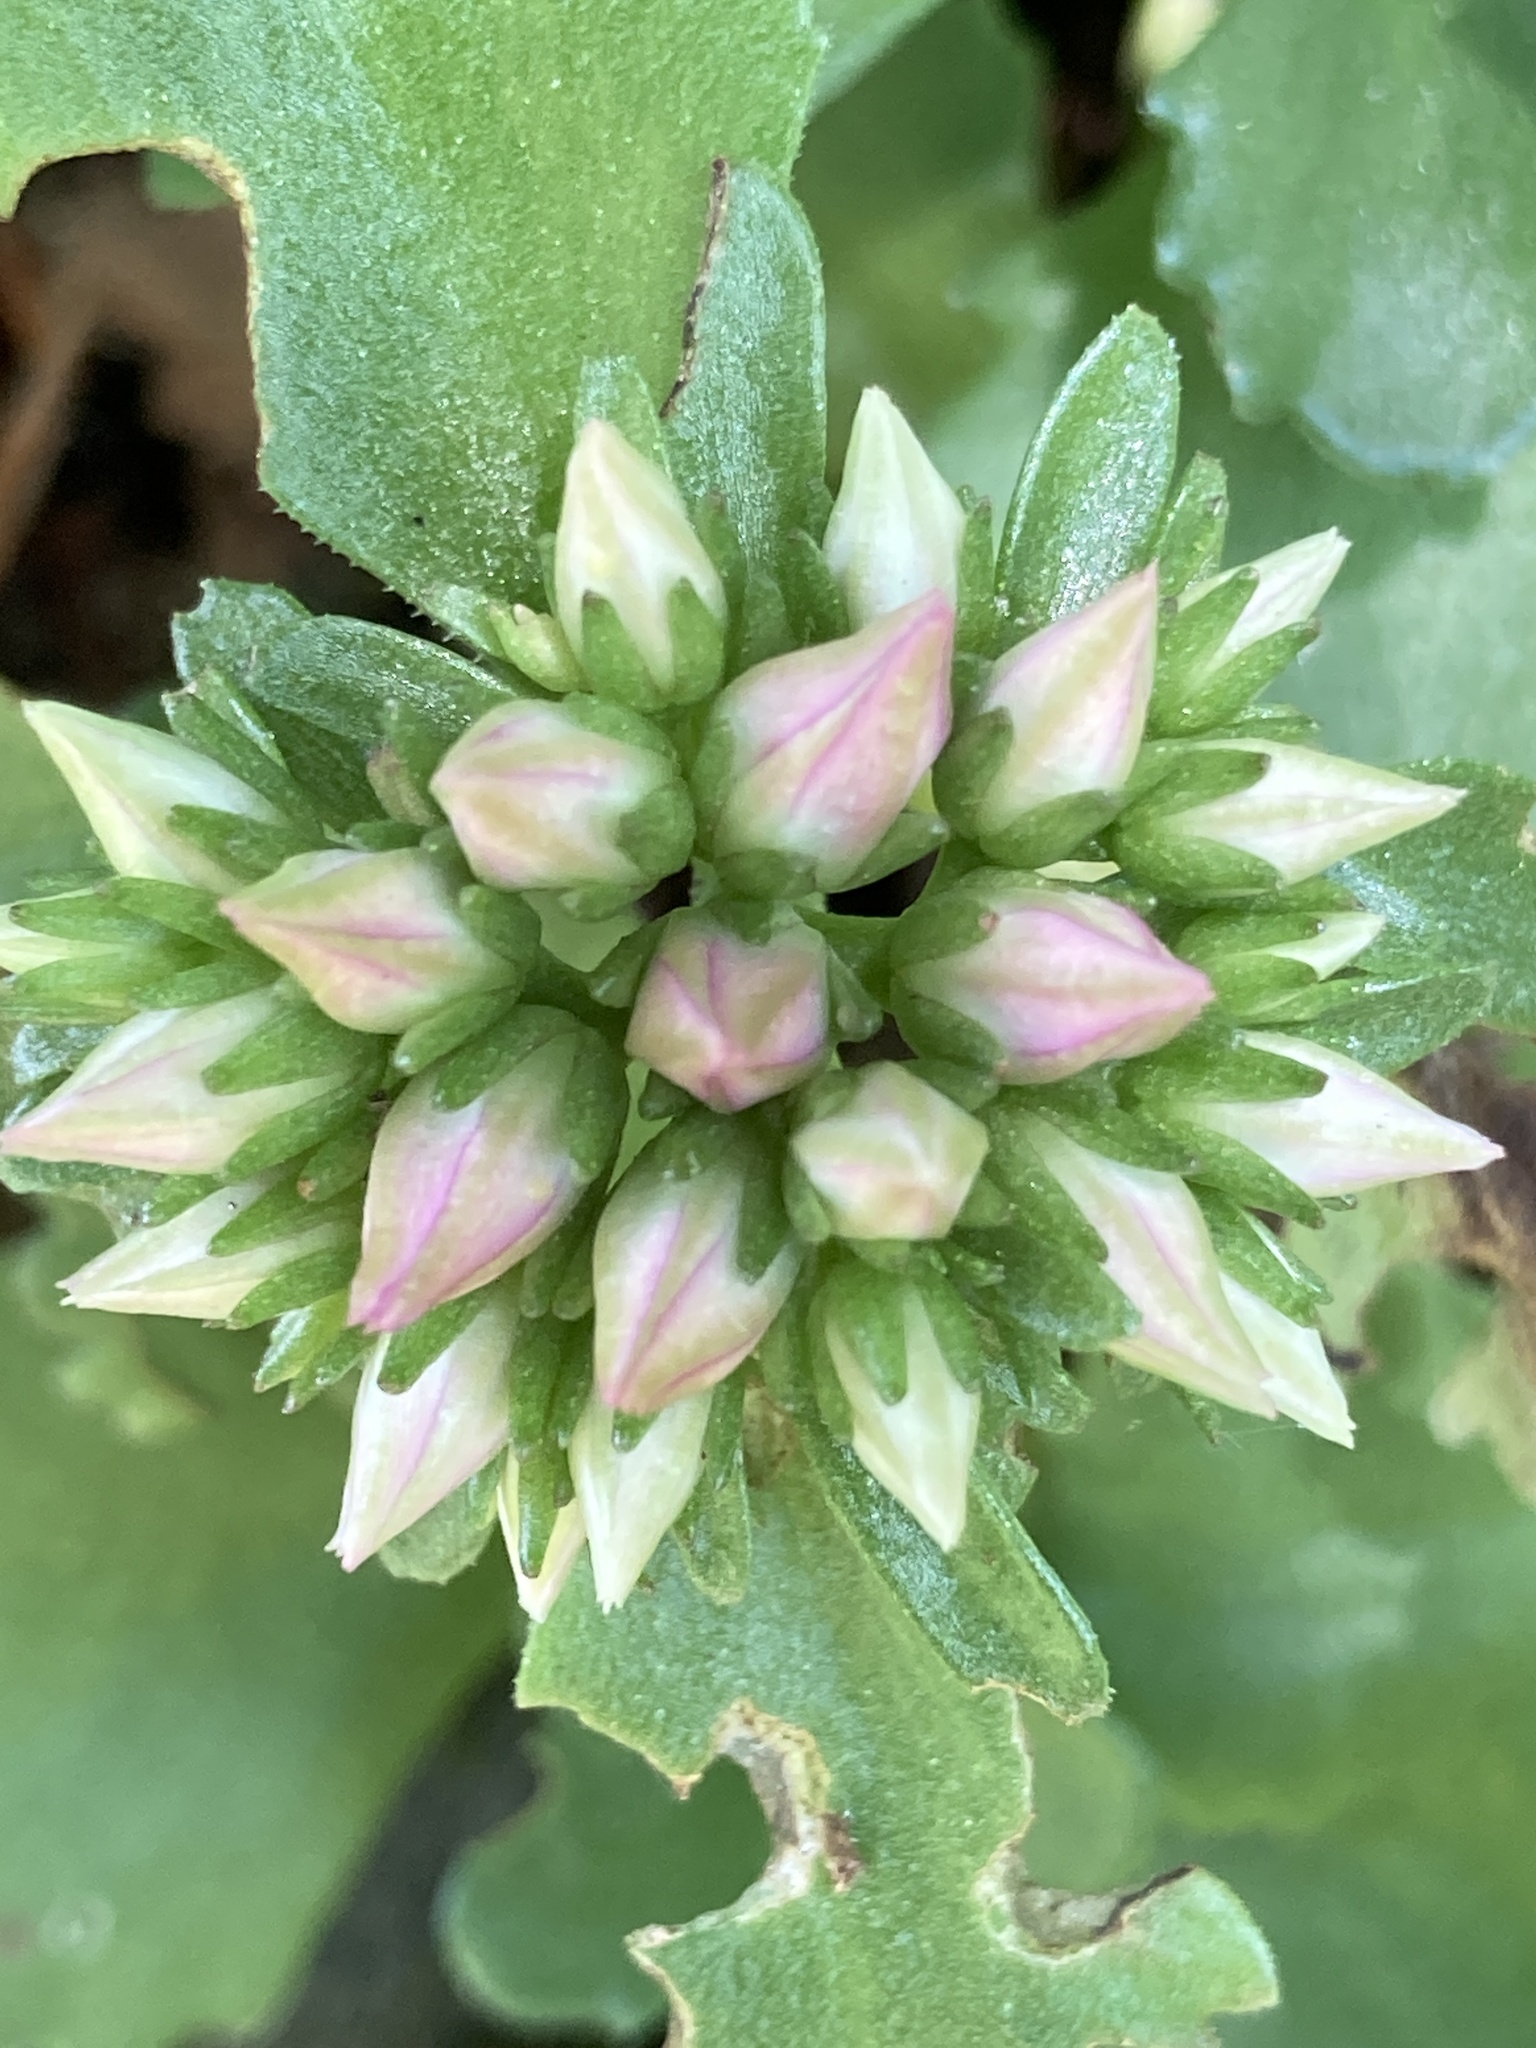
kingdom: Plantae
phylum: Tracheophyta
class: Magnoliopsida
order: Saxifragales
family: Crassulaceae
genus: Phedimus
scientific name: Phedimus spurius
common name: Caucasian stonecrop
